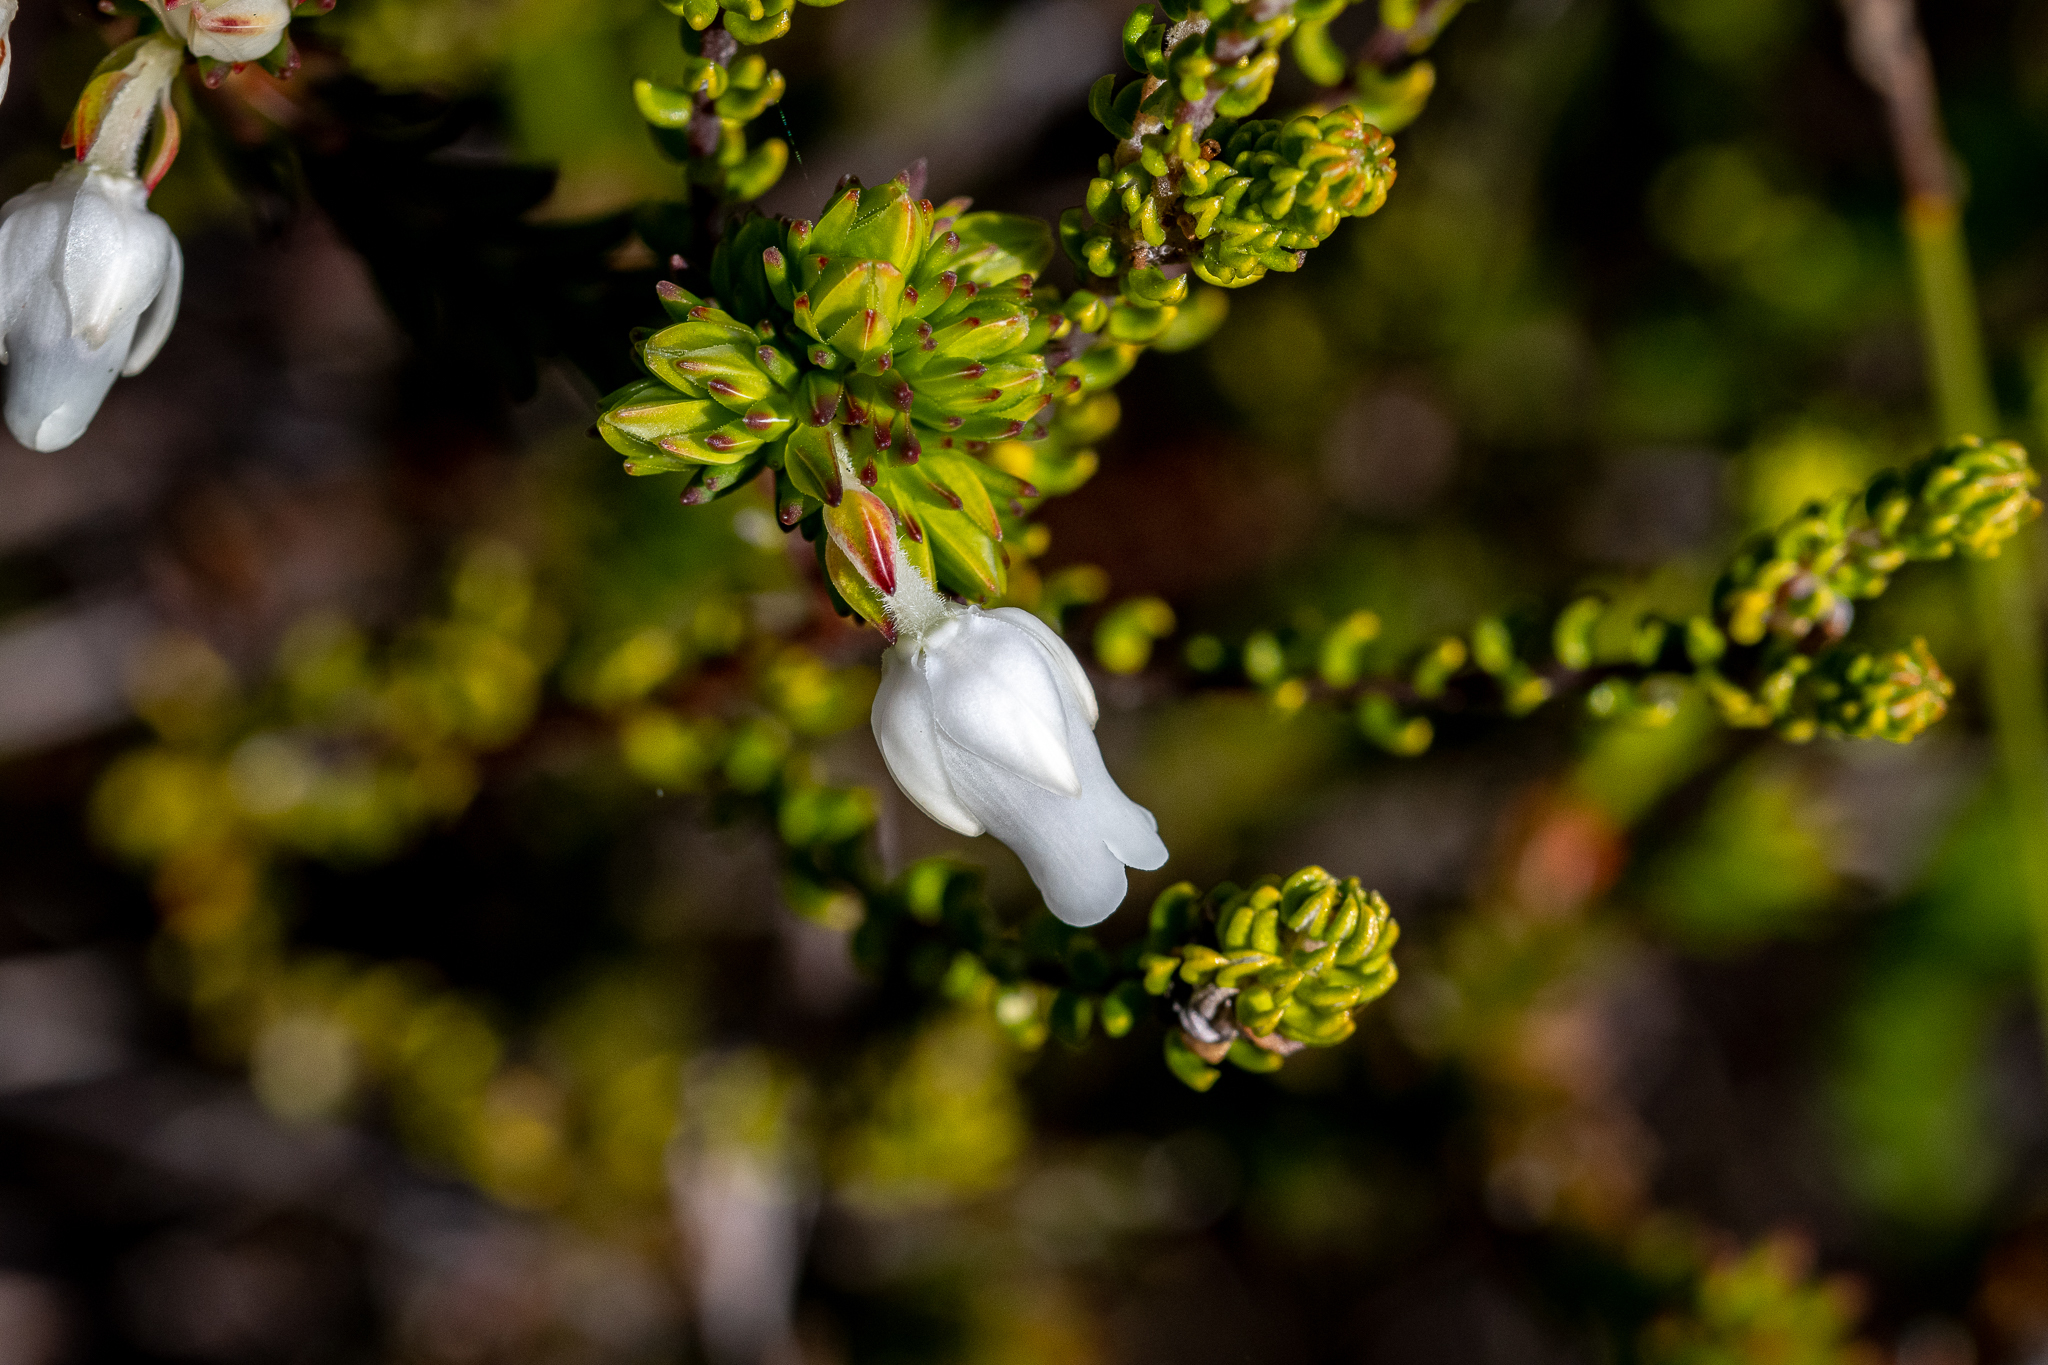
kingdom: Plantae
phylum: Tracheophyta
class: Magnoliopsida
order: Ericales
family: Ericaceae
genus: Erica
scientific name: Erica calcareophila
